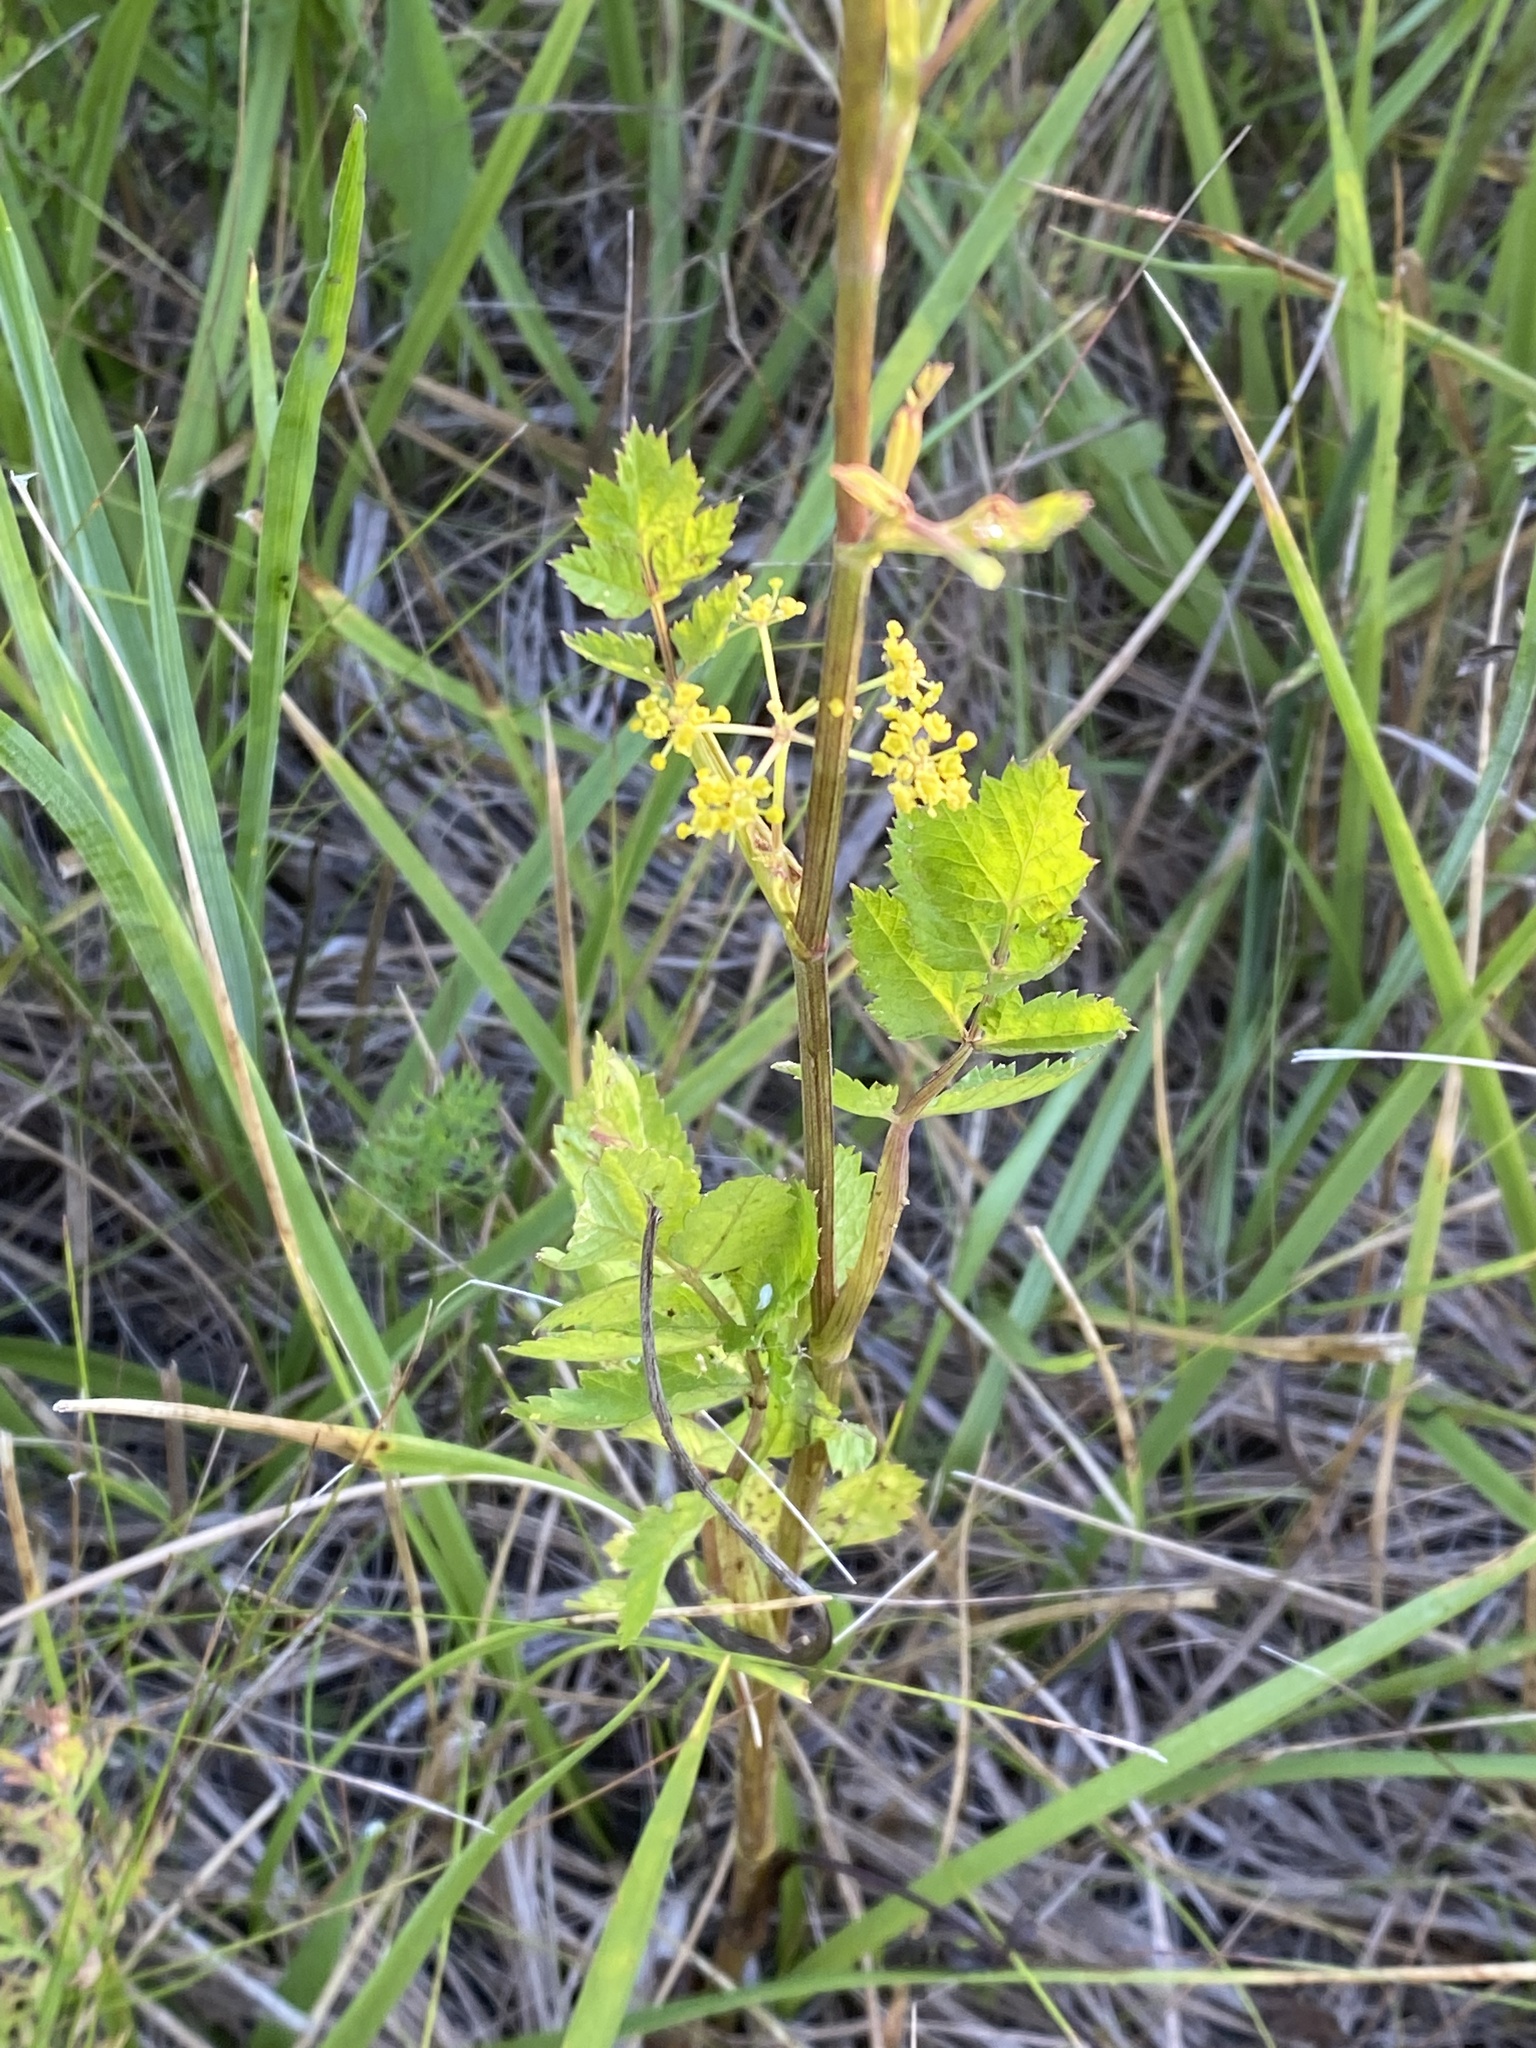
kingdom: Plantae
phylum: Tracheophyta
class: Magnoliopsida
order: Apiales
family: Apiaceae
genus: Pastinaca
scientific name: Pastinaca sativa
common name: Wild parsnip
